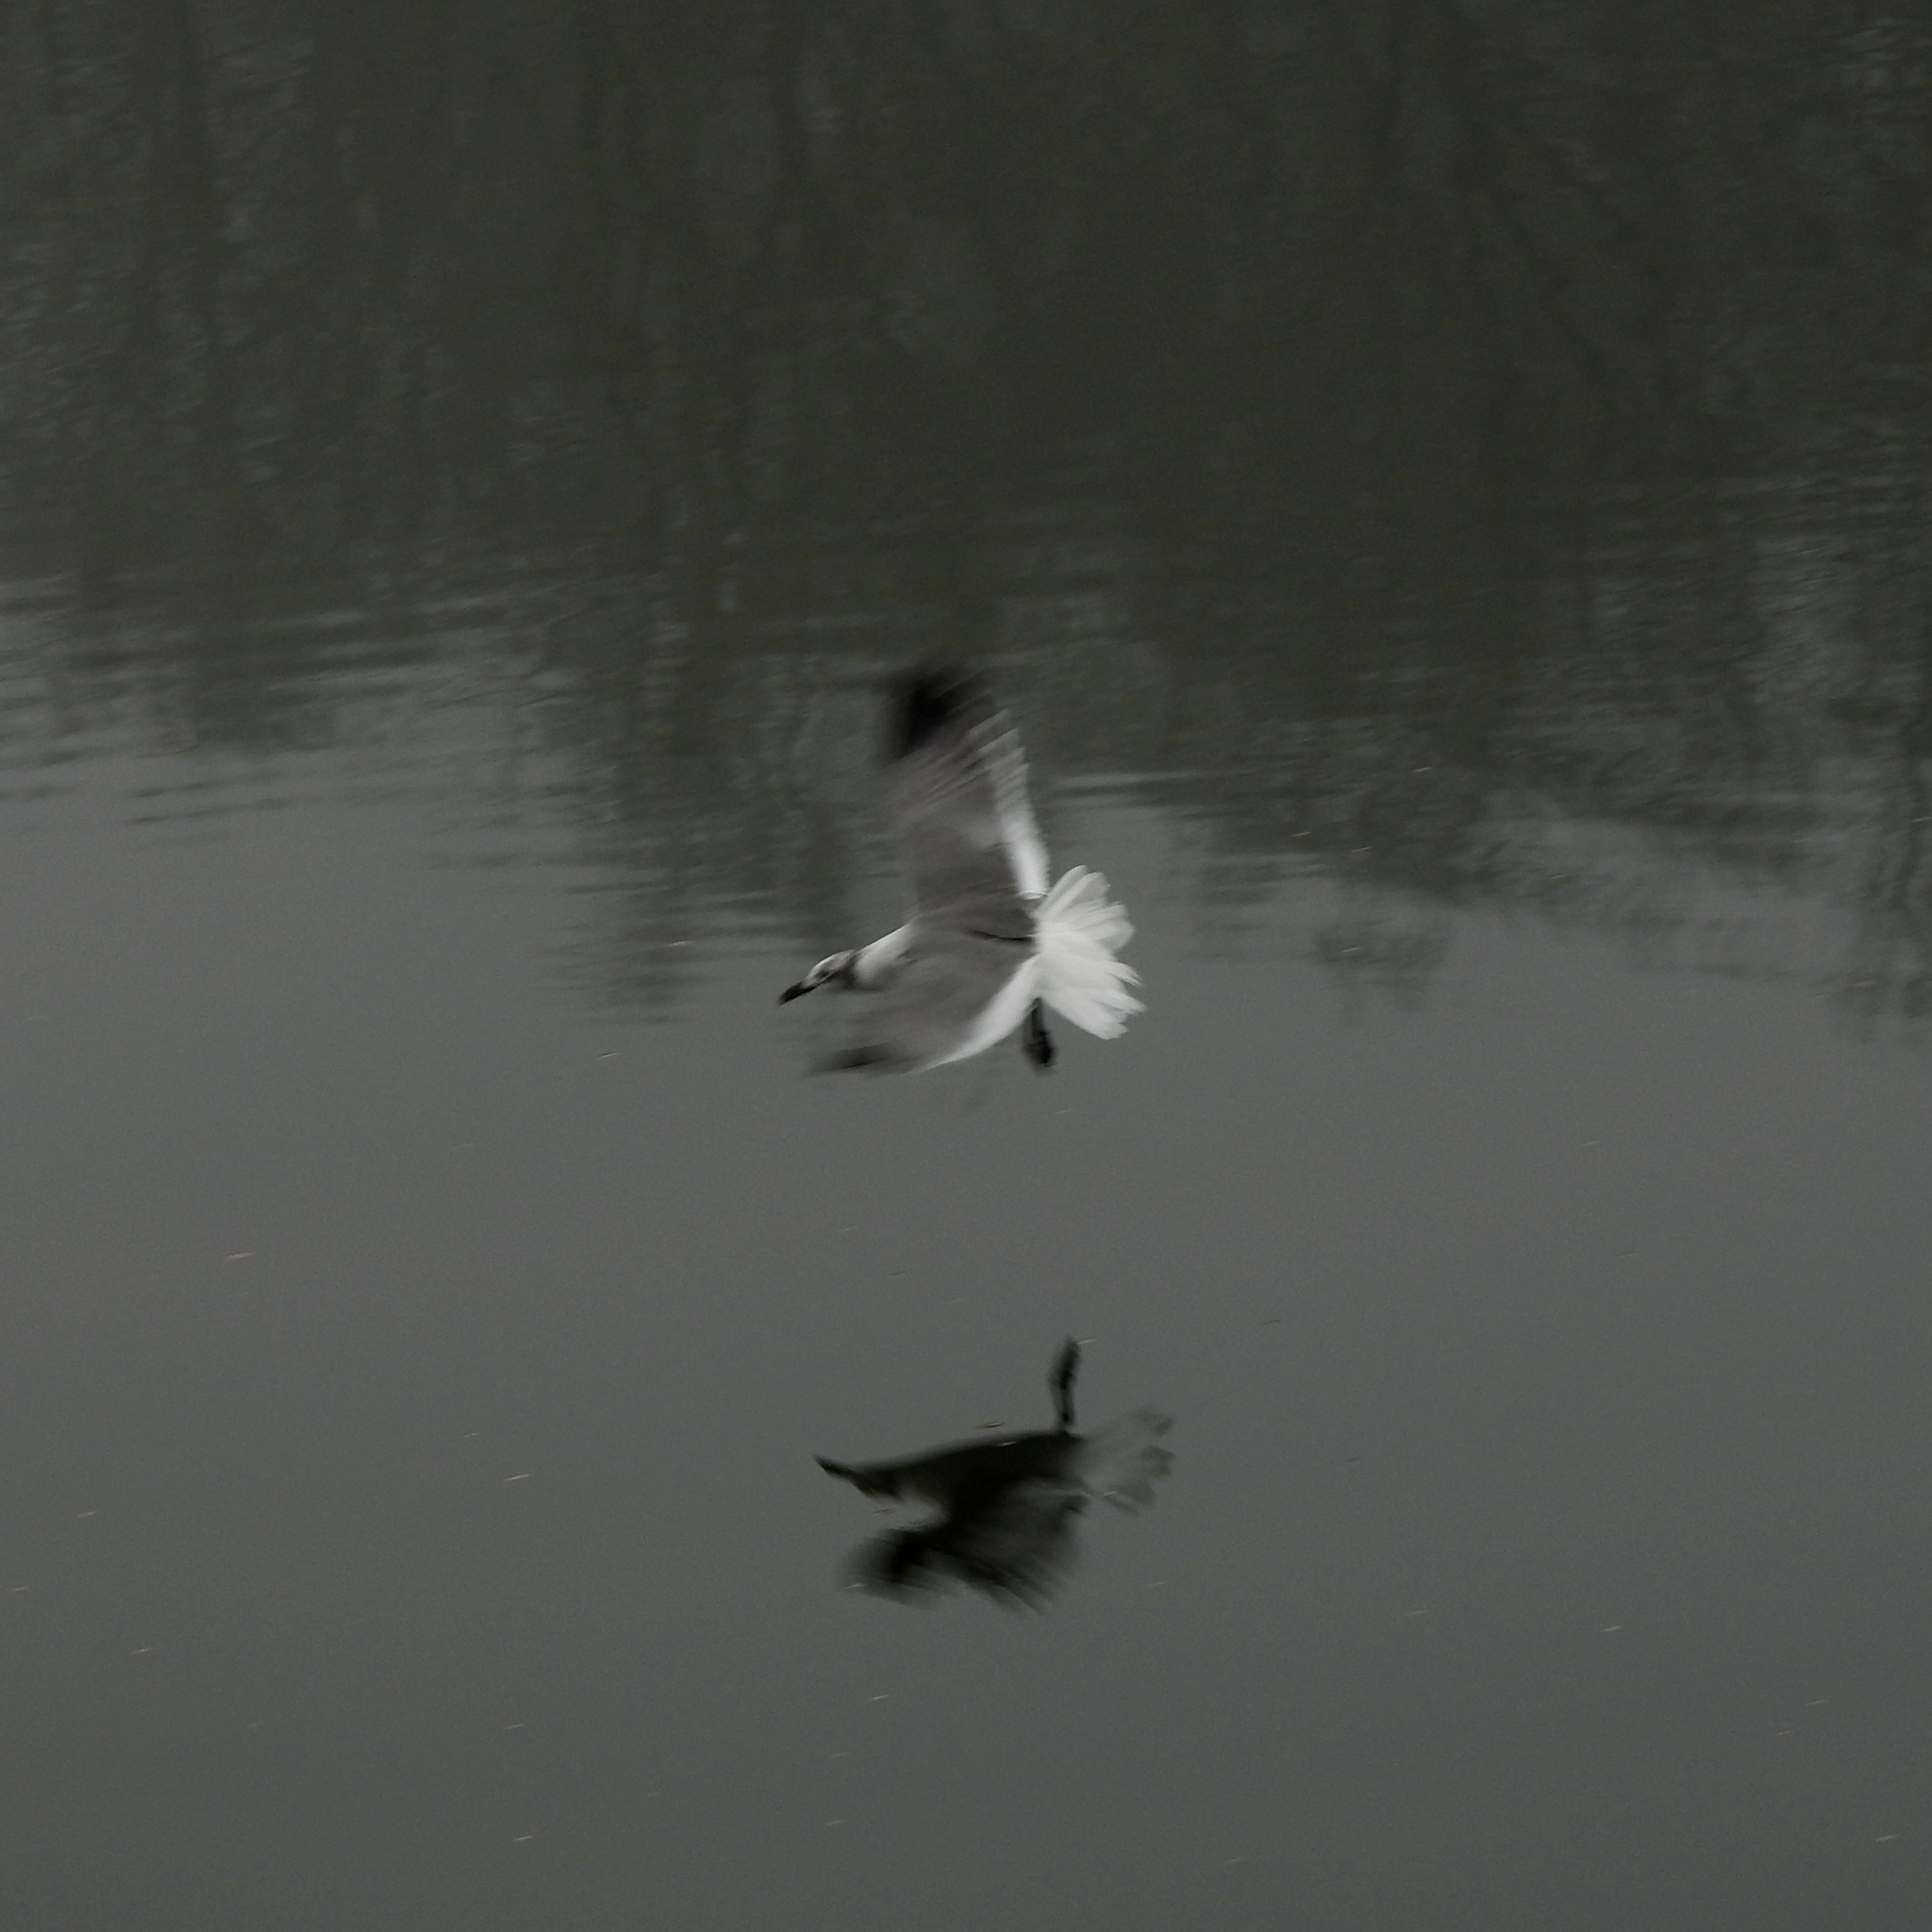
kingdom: Animalia
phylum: Chordata
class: Aves
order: Charadriiformes
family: Laridae
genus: Leucophaeus
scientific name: Leucophaeus atricilla
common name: Laughing gull
